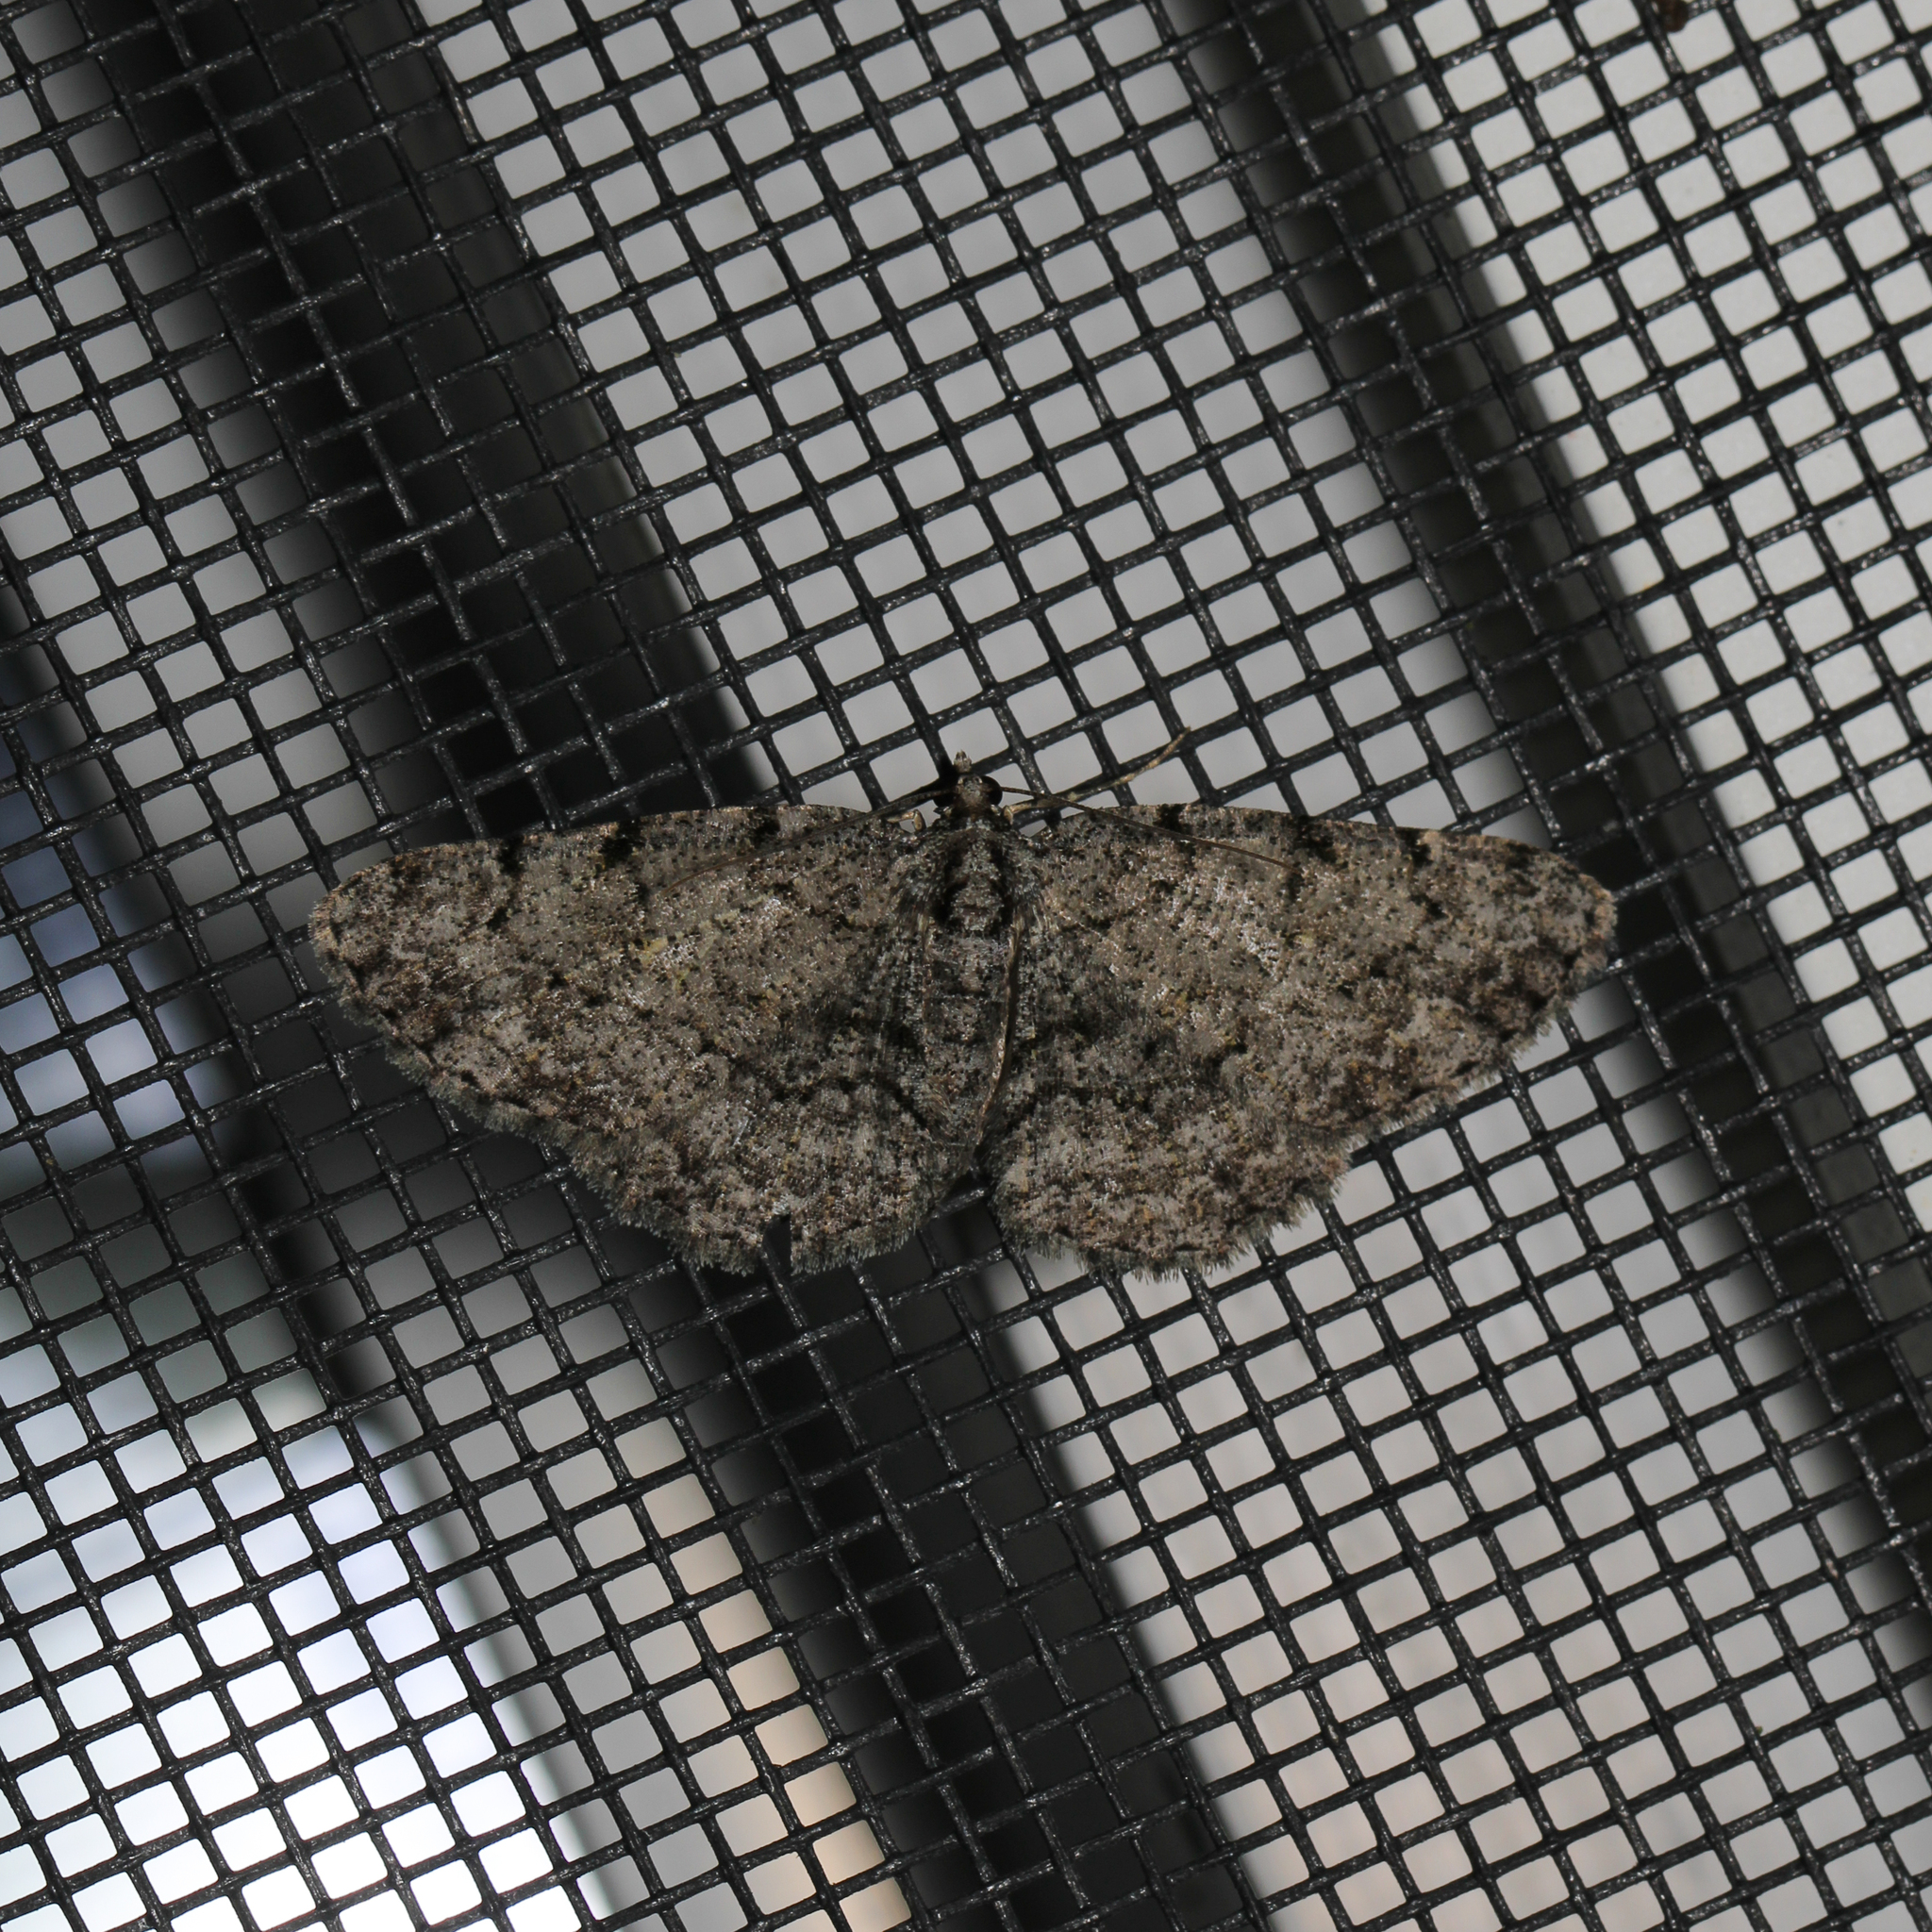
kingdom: Animalia
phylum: Arthropoda
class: Insecta
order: Lepidoptera
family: Geometridae
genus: Protoboarmia
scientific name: Protoboarmia porcelaria
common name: Porcelain gray
